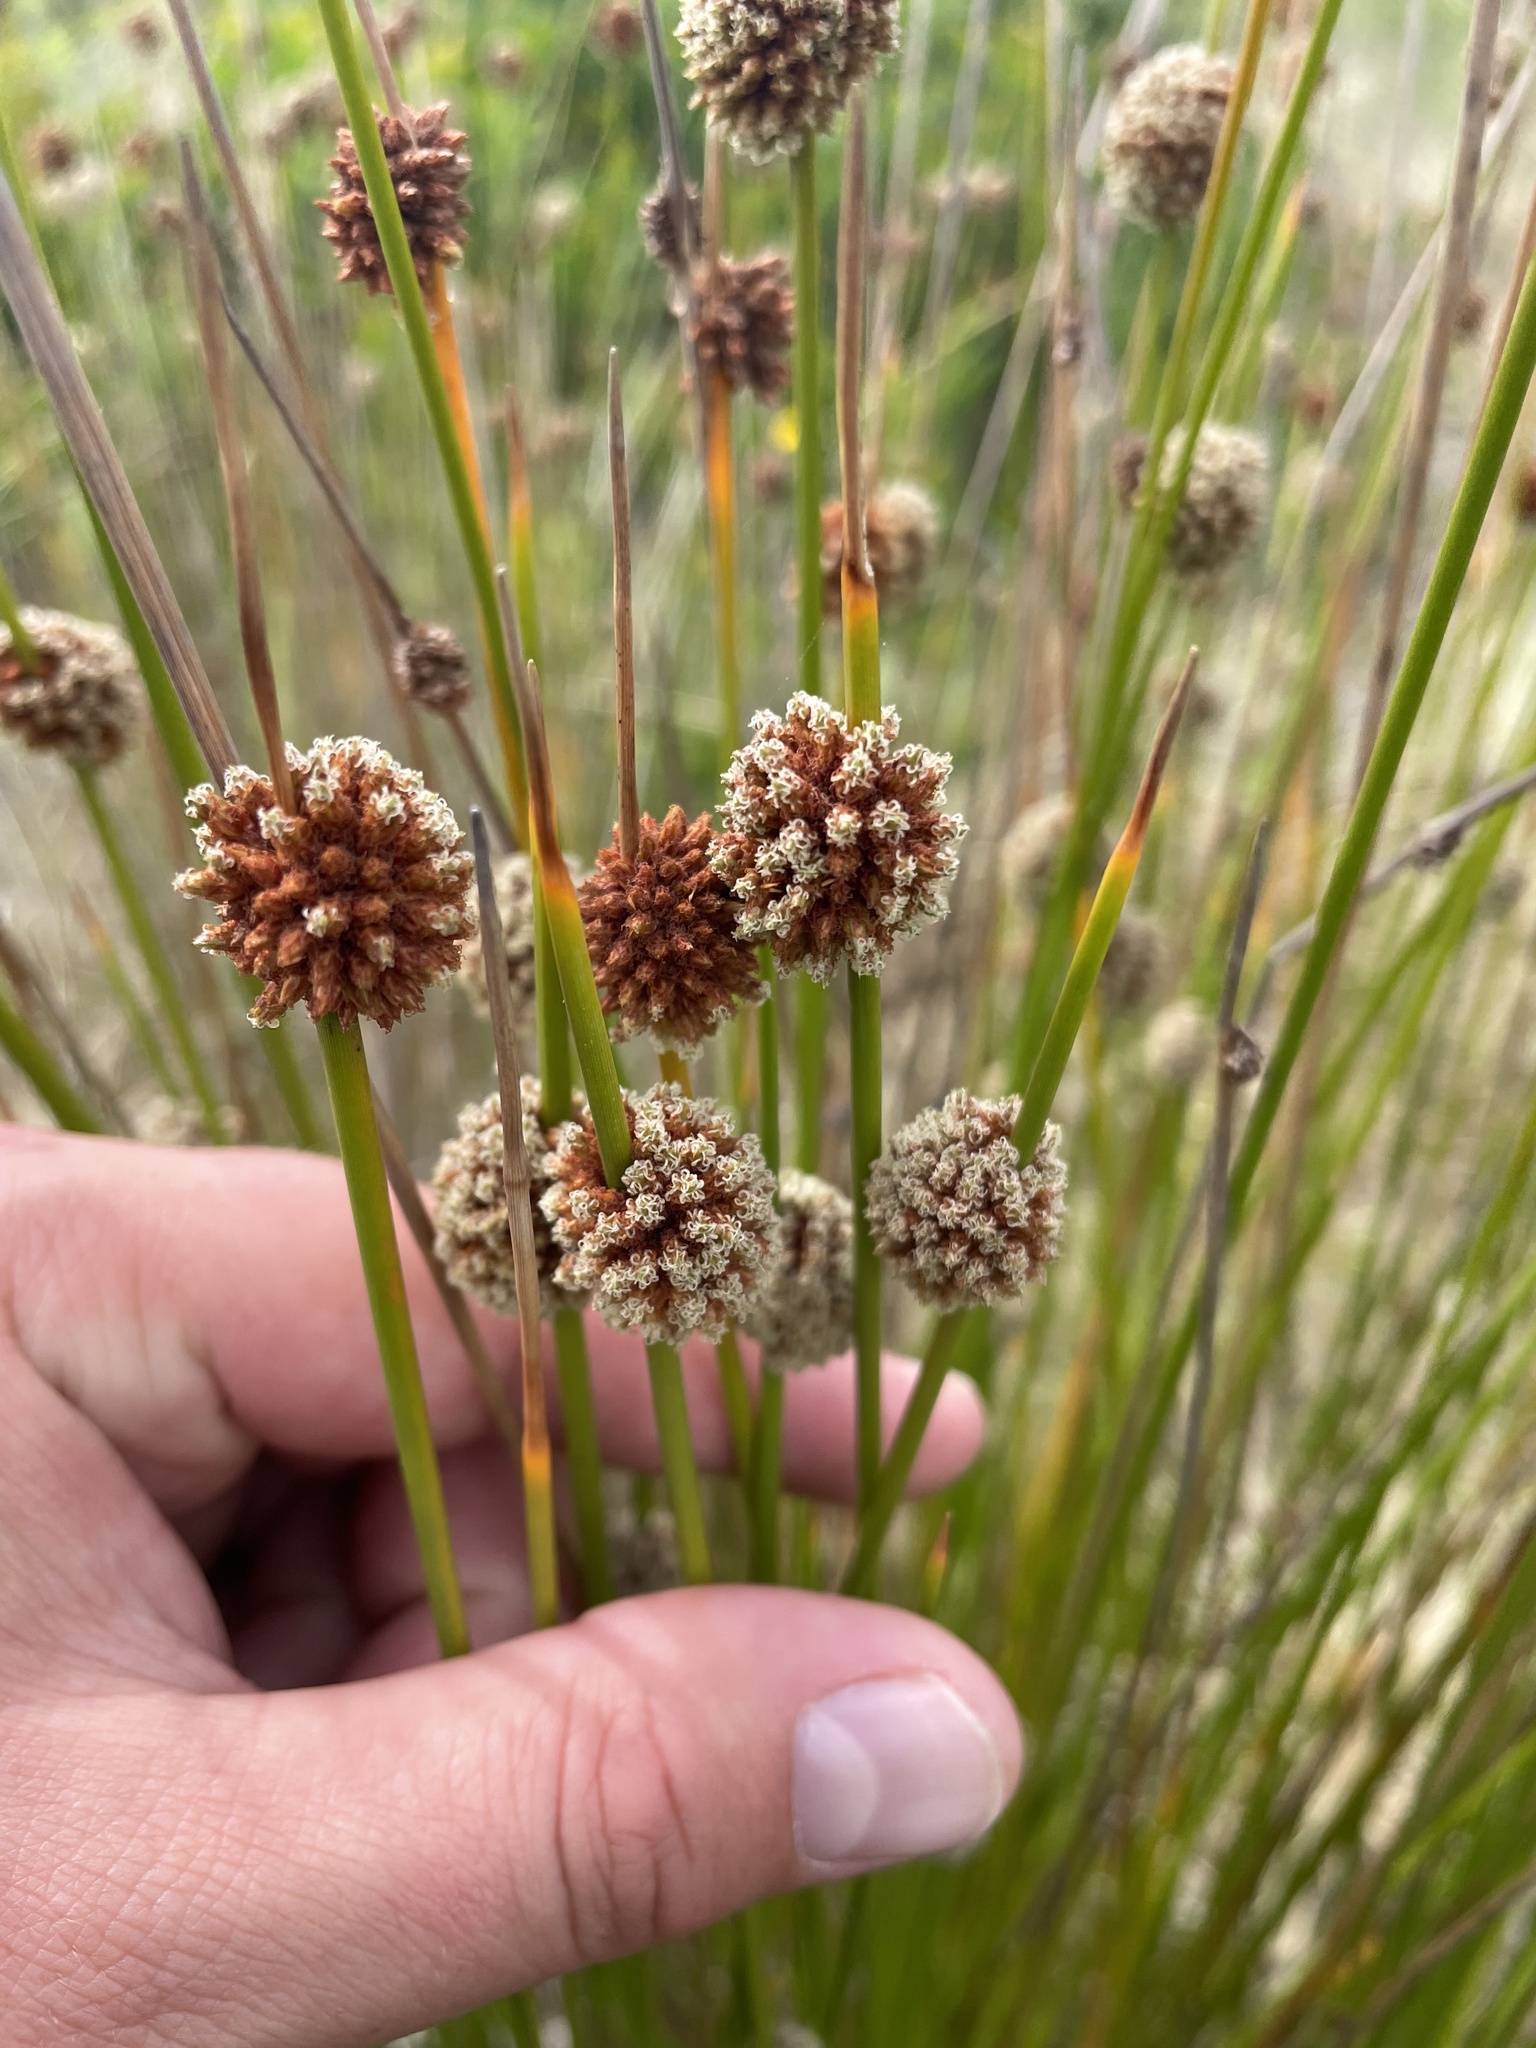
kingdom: Plantae
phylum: Tracheophyta
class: Liliopsida
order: Poales
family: Cyperaceae
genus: Ficinia
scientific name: Ficinia nodosa
